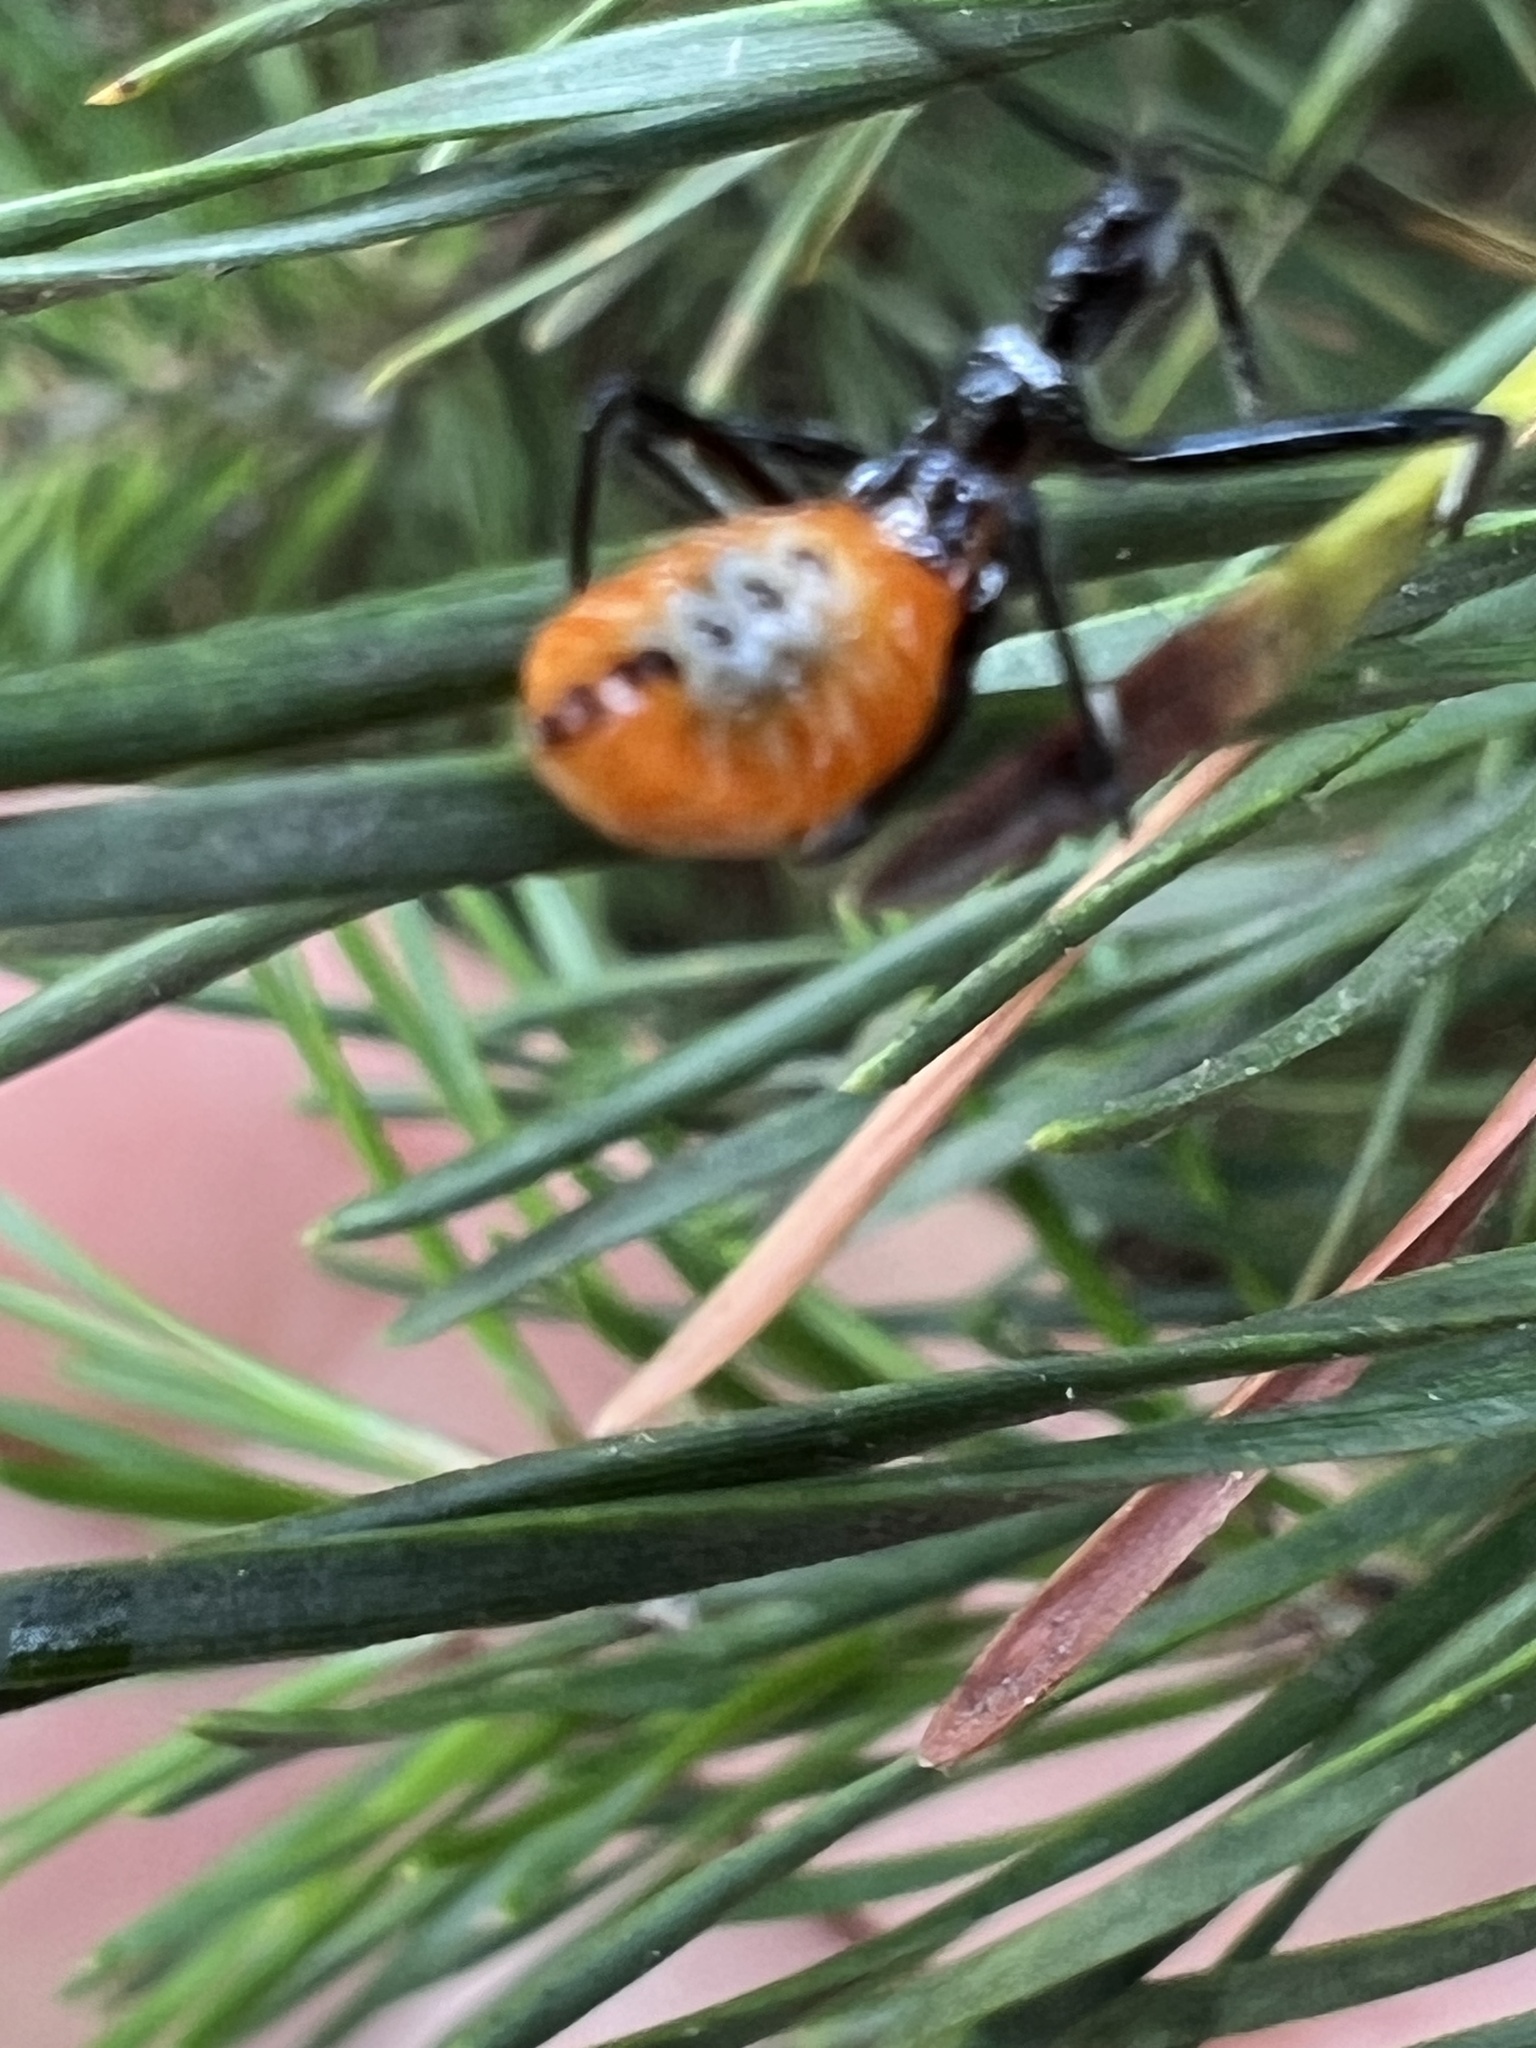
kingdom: Animalia
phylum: Arthropoda
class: Insecta
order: Hemiptera
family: Reduviidae
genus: Arilus
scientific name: Arilus cristatus
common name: North american wheel bug
